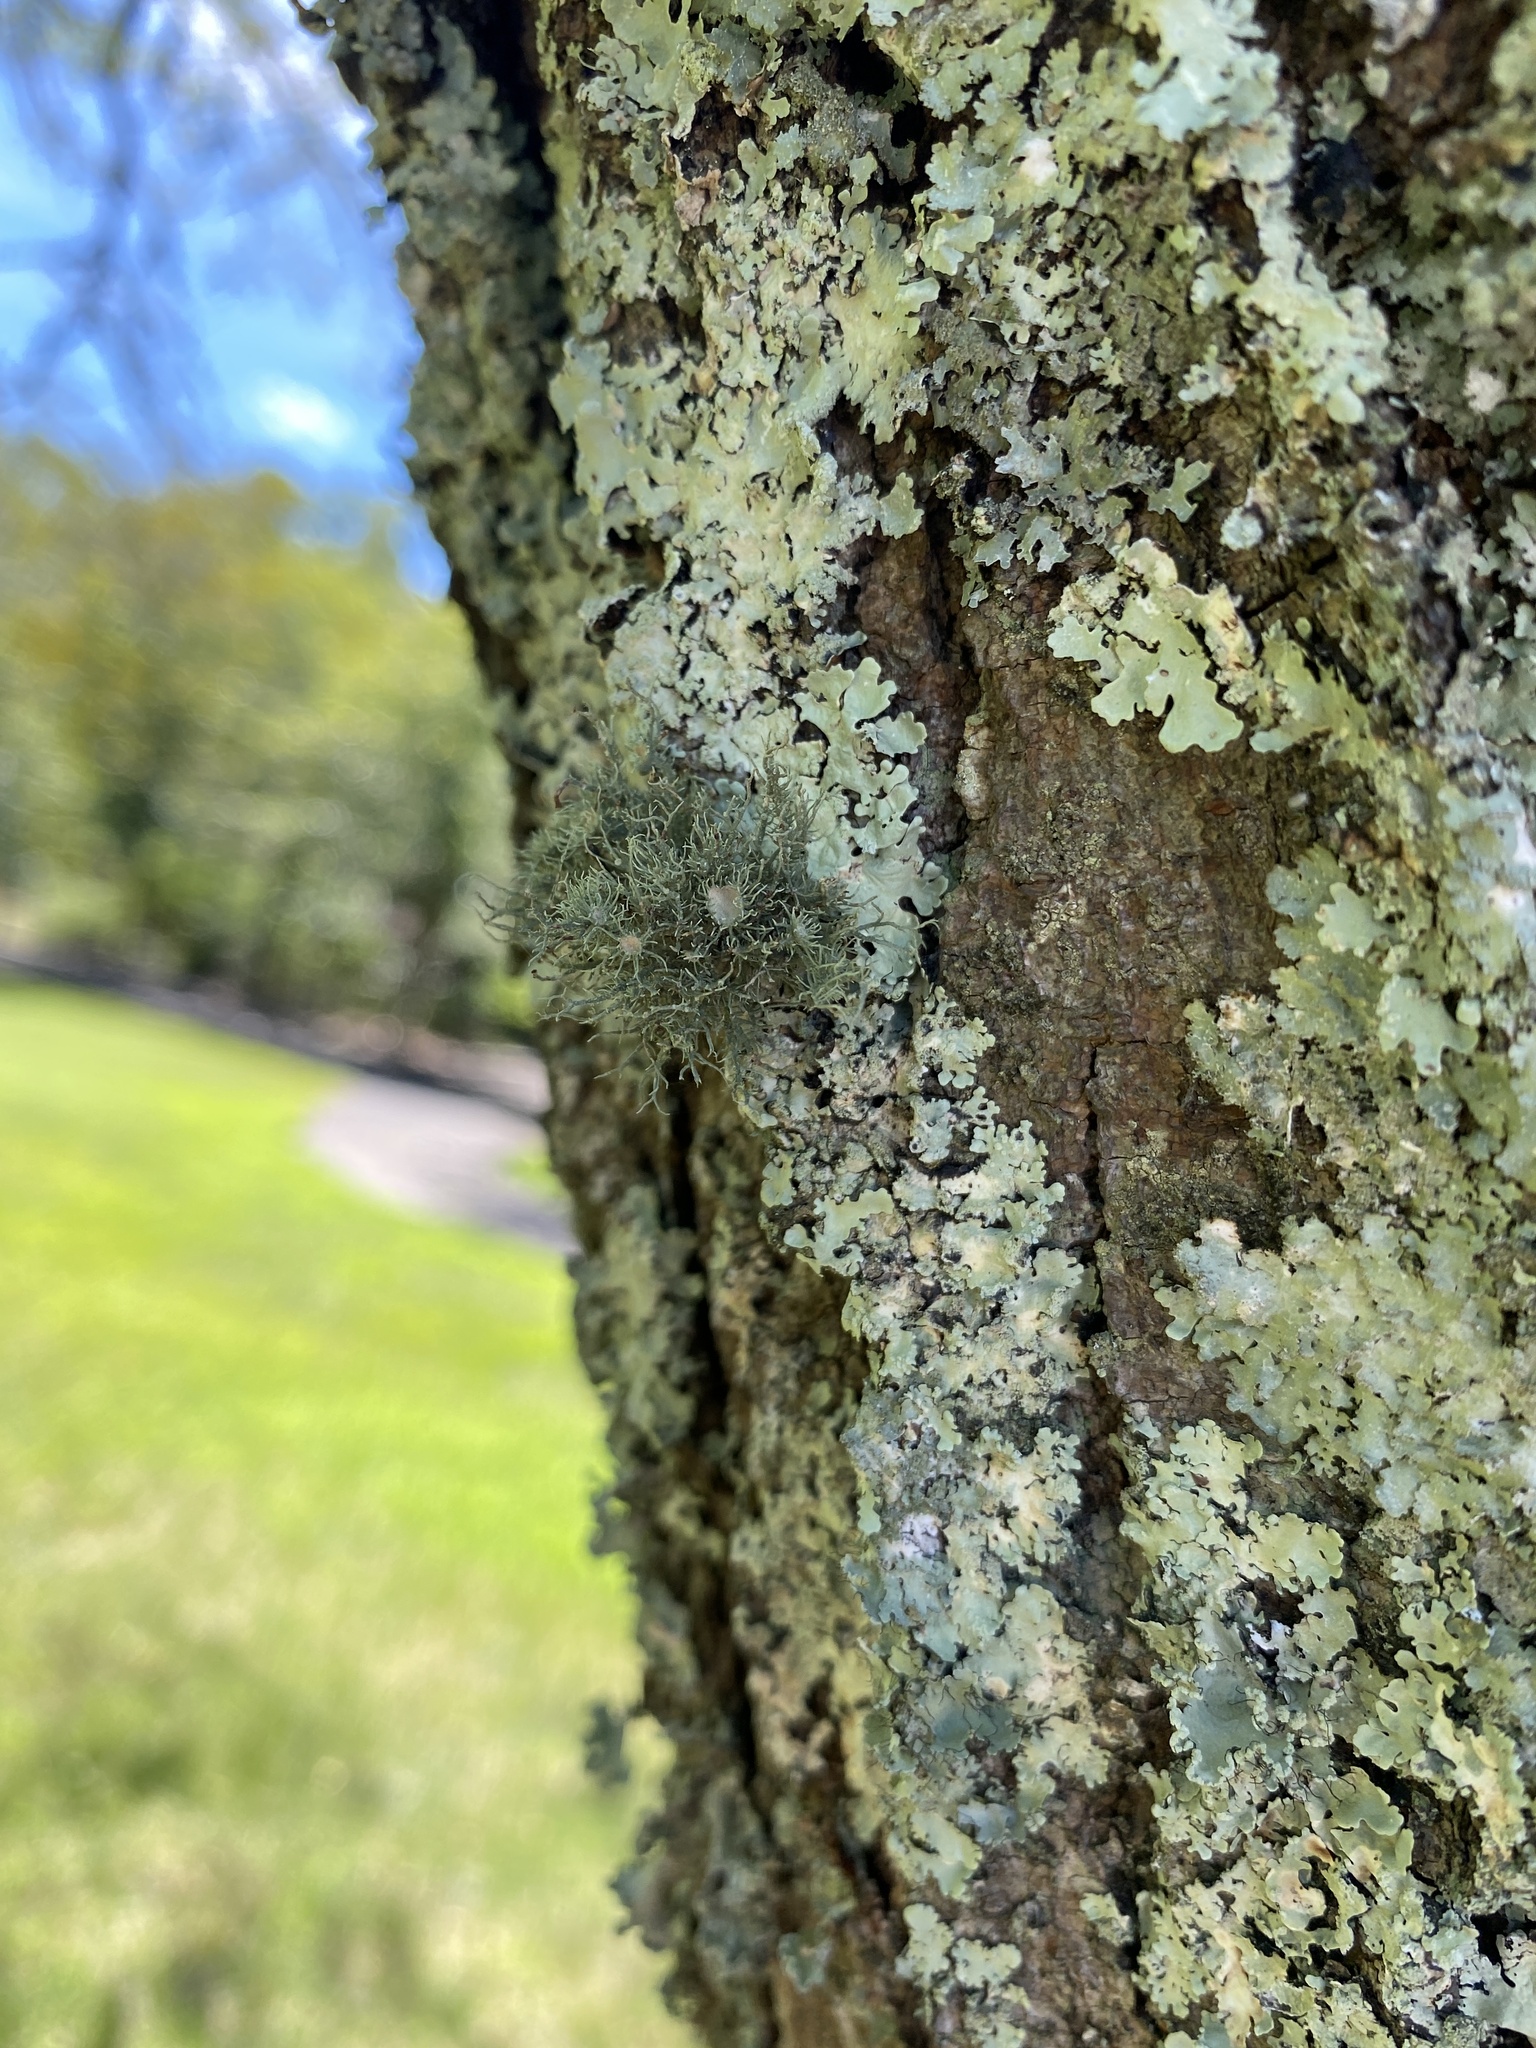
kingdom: Fungi
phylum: Ascomycota
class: Lecanoromycetes
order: Lecanorales
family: Parmeliaceae
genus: Usnea
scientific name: Usnea strigosa
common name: Bushy beard lichen
